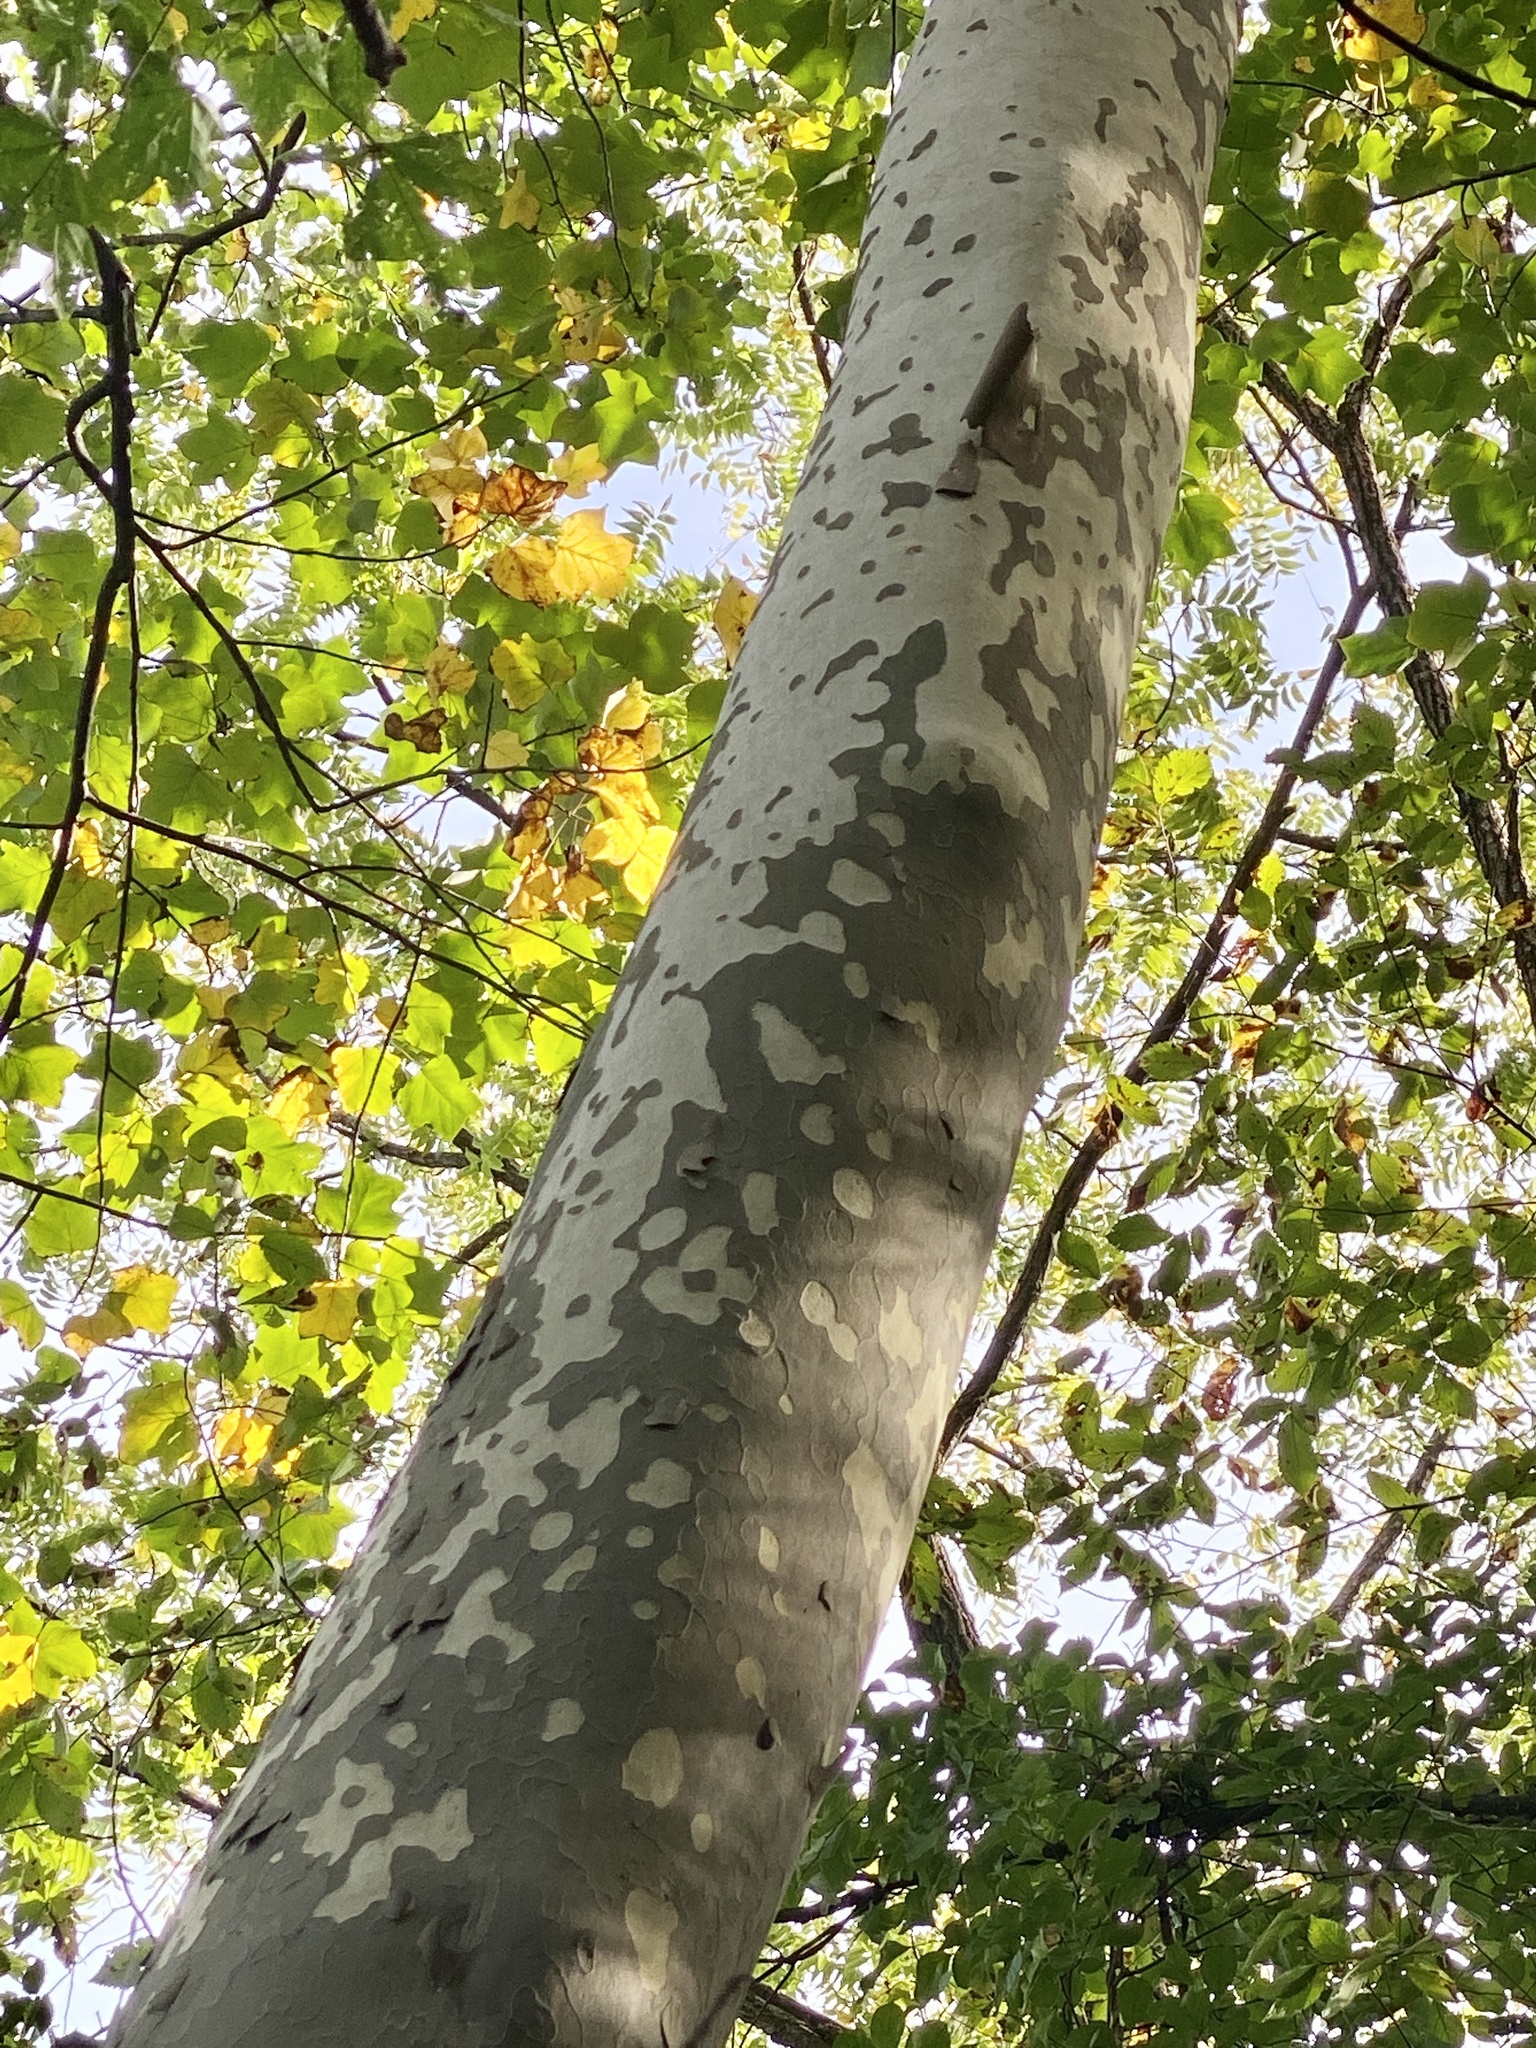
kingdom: Plantae
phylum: Tracheophyta
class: Magnoliopsida
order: Proteales
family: Platanaceae
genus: Platanus
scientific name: Platanus occidentalis
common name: American sycamore
